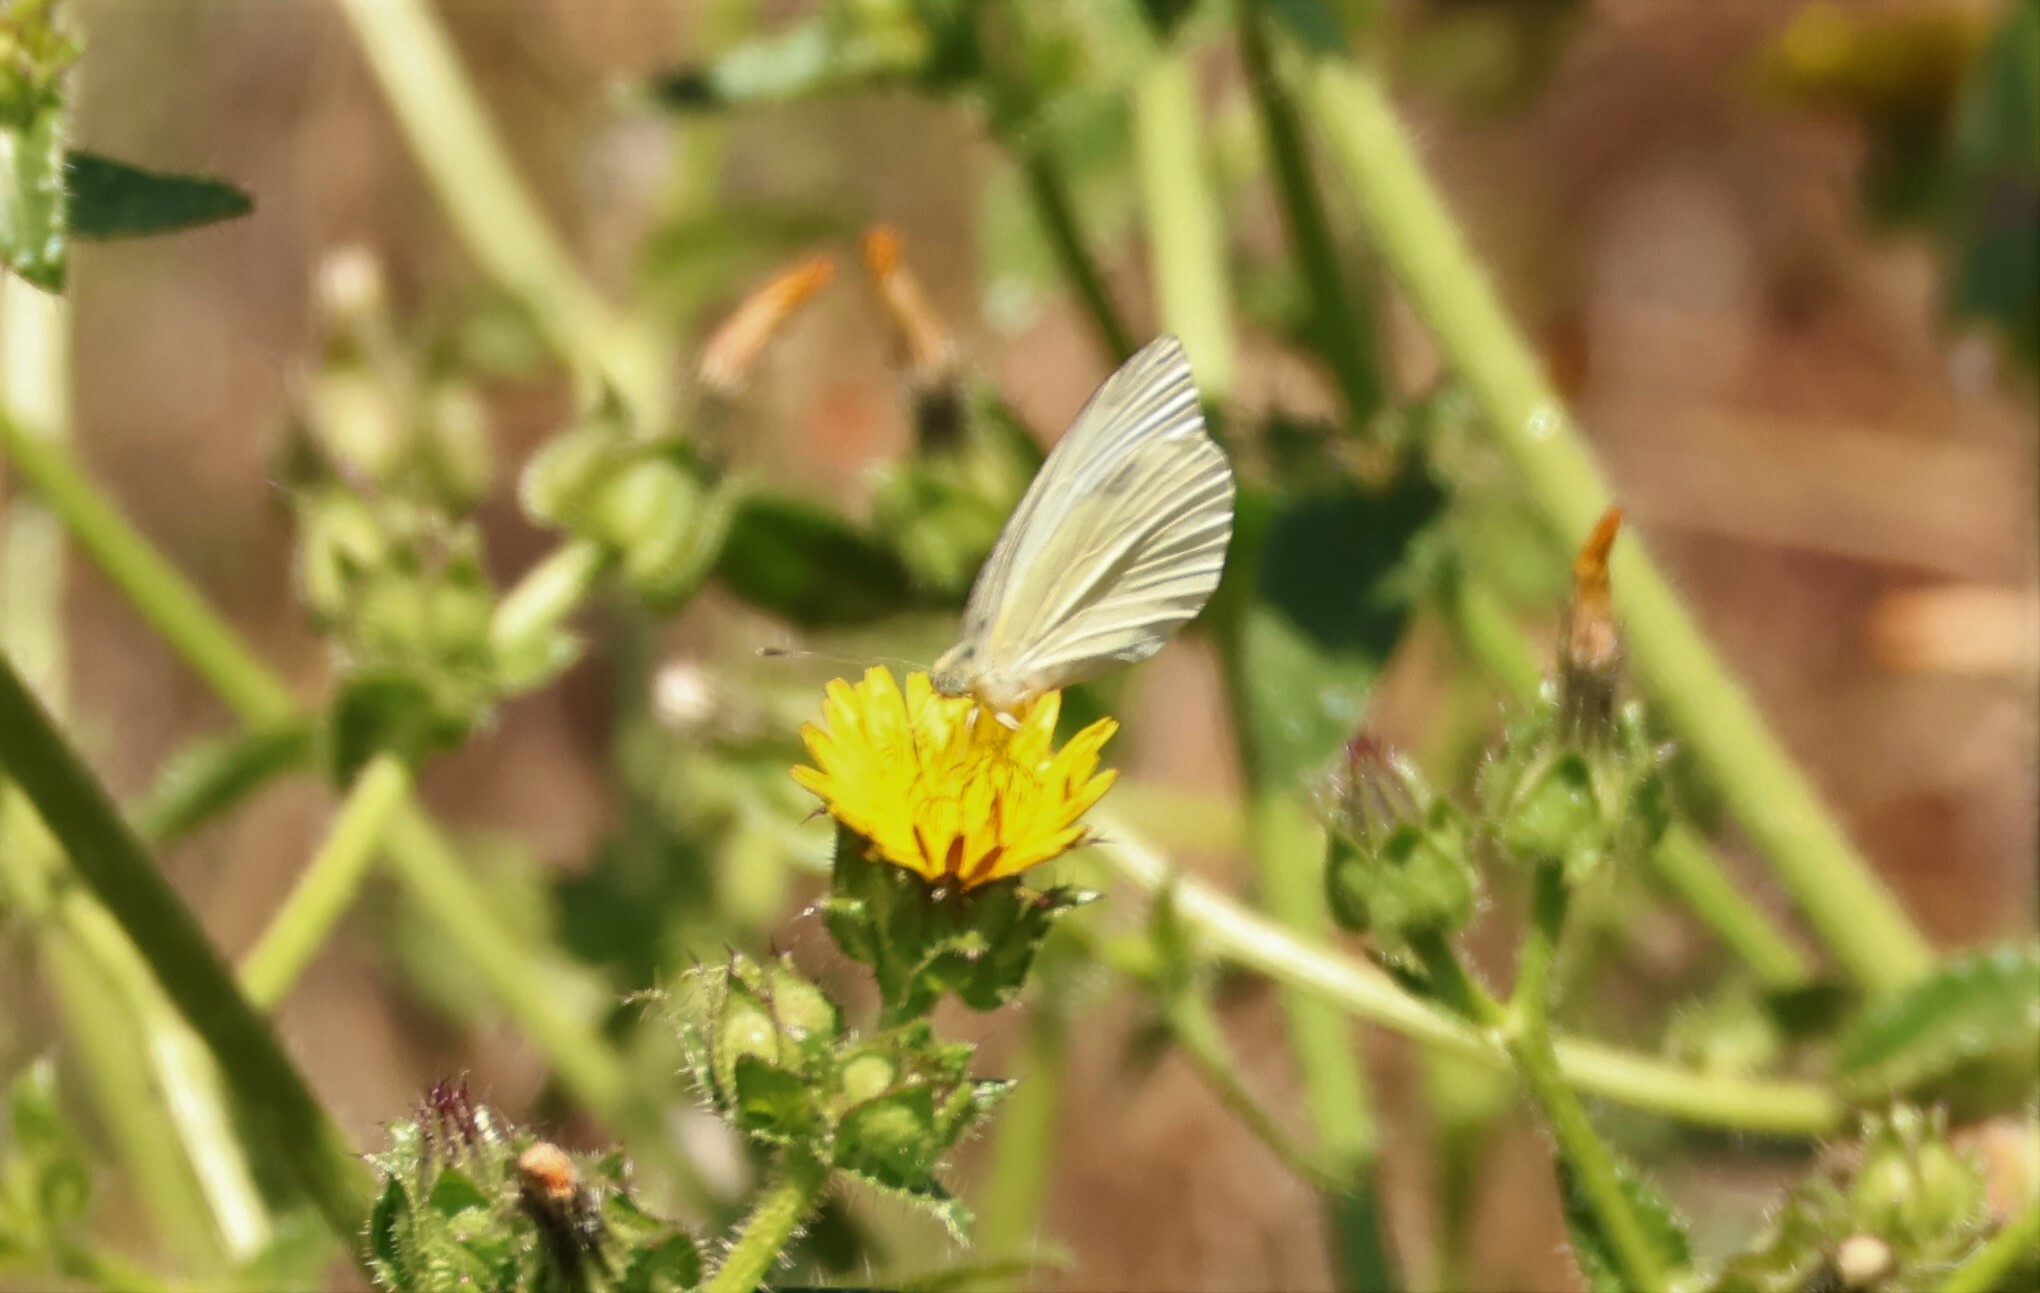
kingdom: Animalia
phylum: Arthropoda
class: Insecta
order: Lepidoptera
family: Pieridae
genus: Pieris
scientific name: Pieris rapae
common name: Small white
